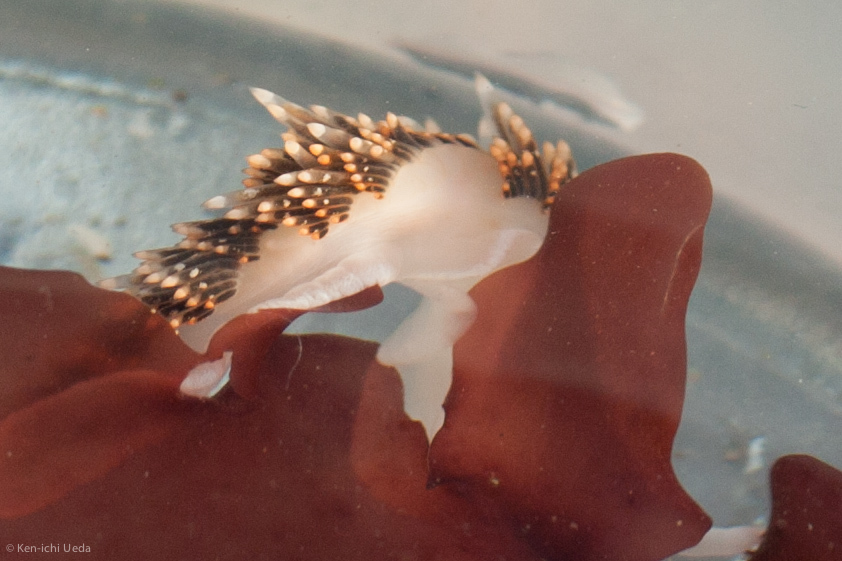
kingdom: Animalia
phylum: Mollusca
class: Gastropoda
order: Nudibranchia
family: Facelinidae
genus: Phidiana
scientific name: Phidiana hiltoni
